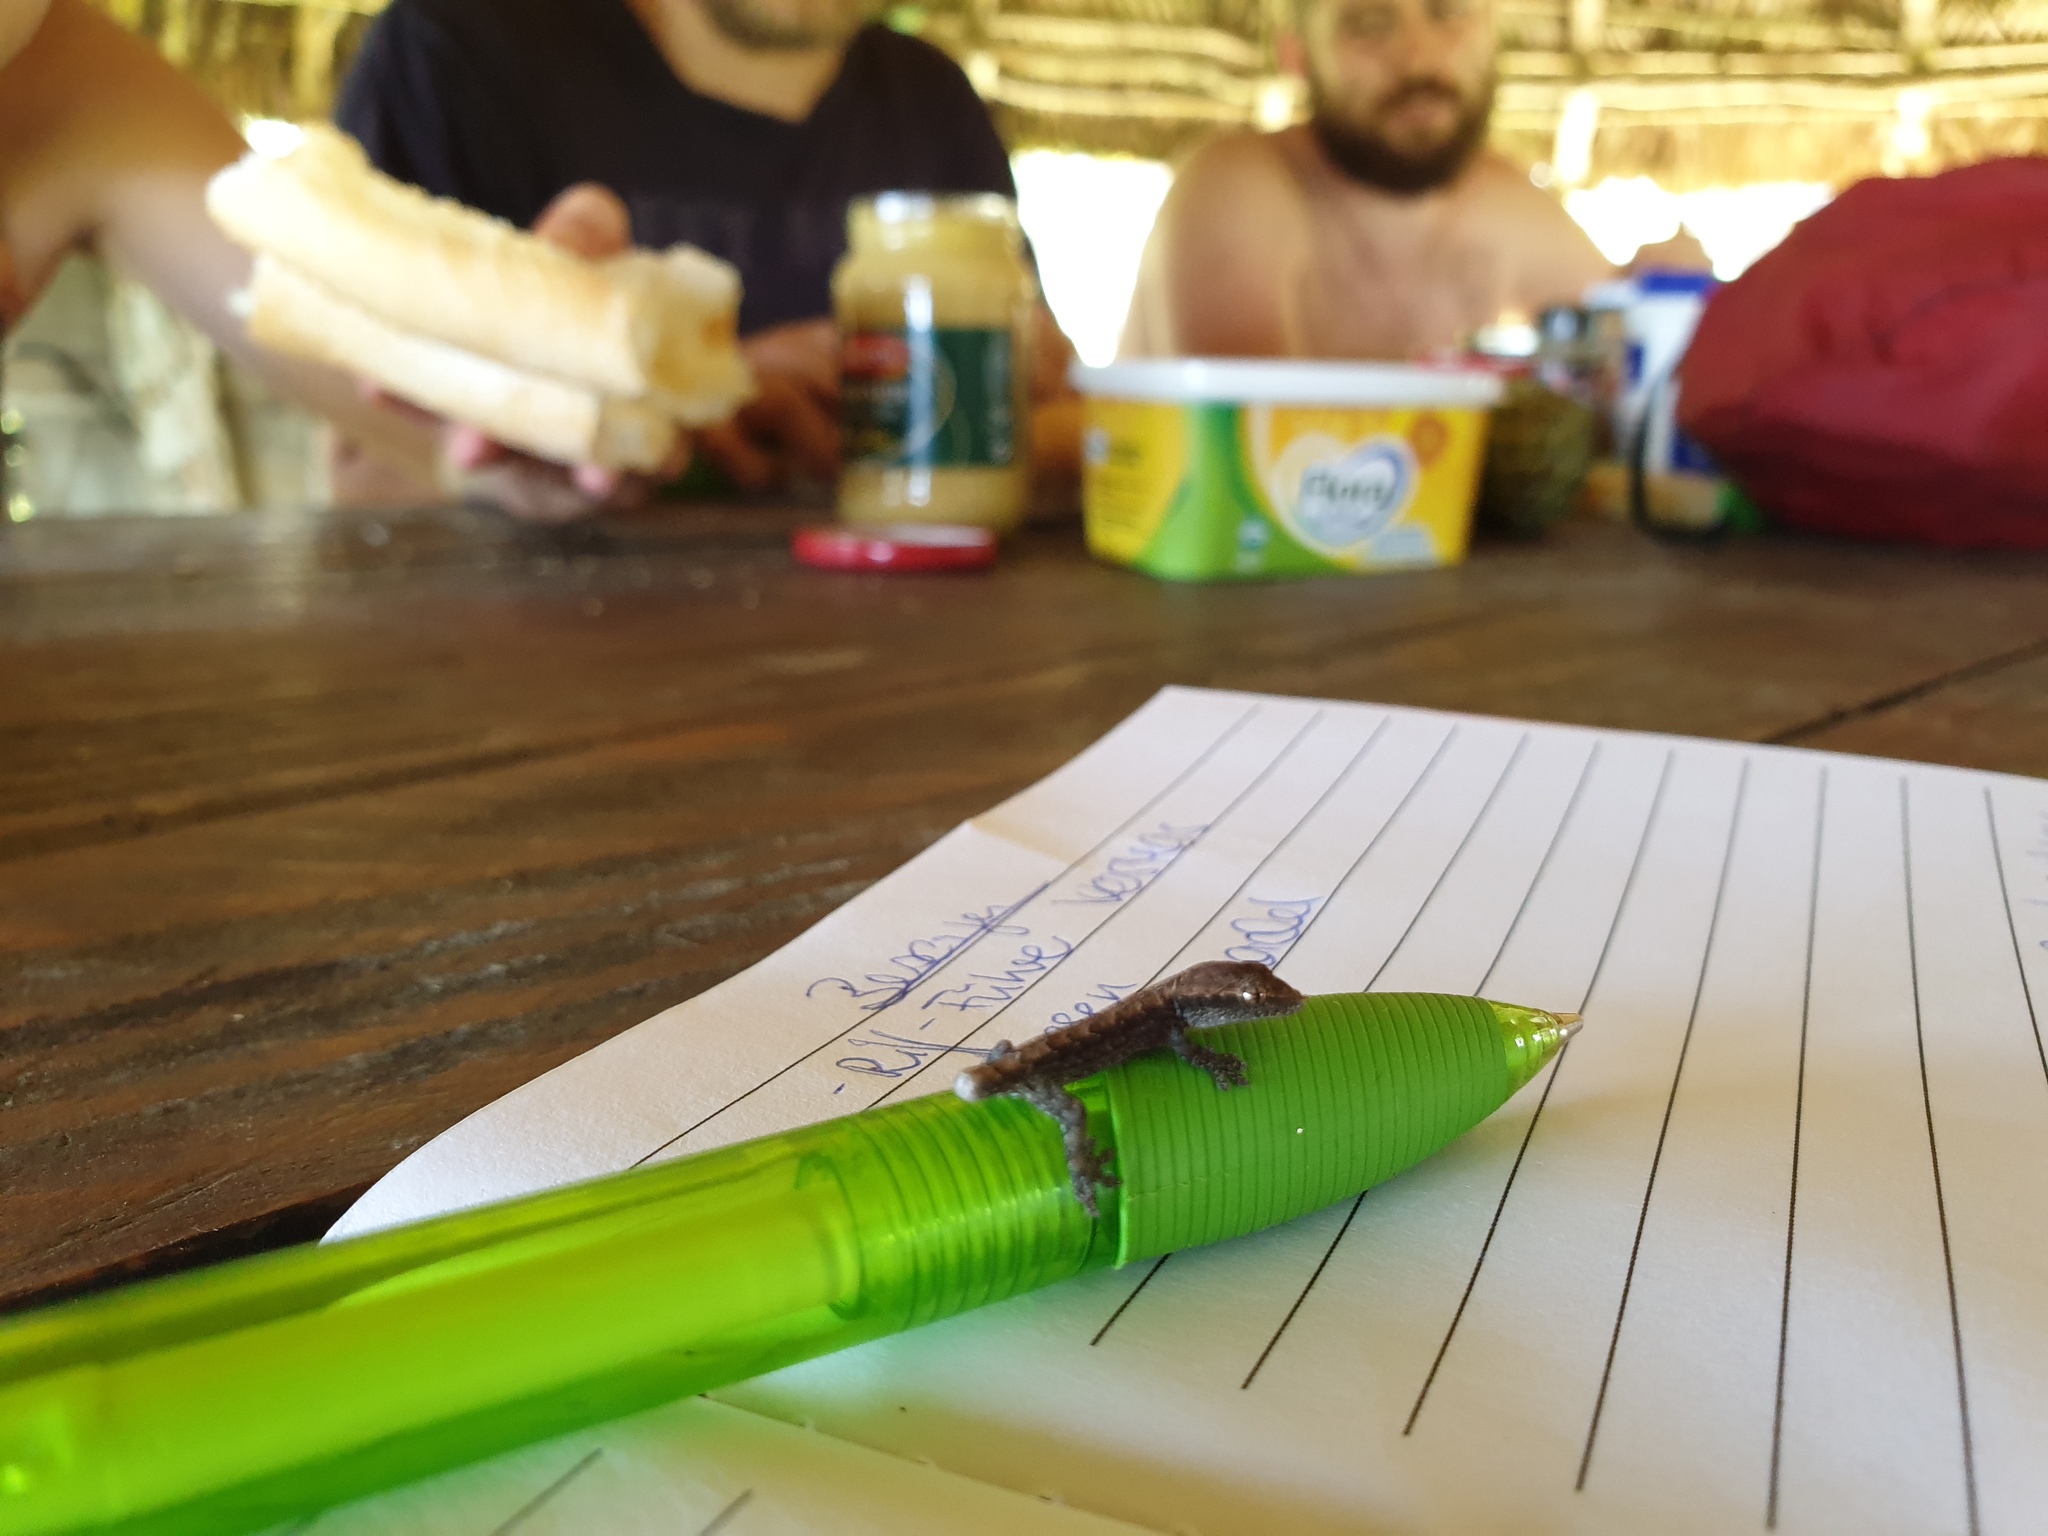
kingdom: Animalia
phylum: Chordata
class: Squamata
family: Gekkonidae
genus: Lepidodactylus
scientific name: Lepidodactylus lugubris
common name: Mourning gecko
